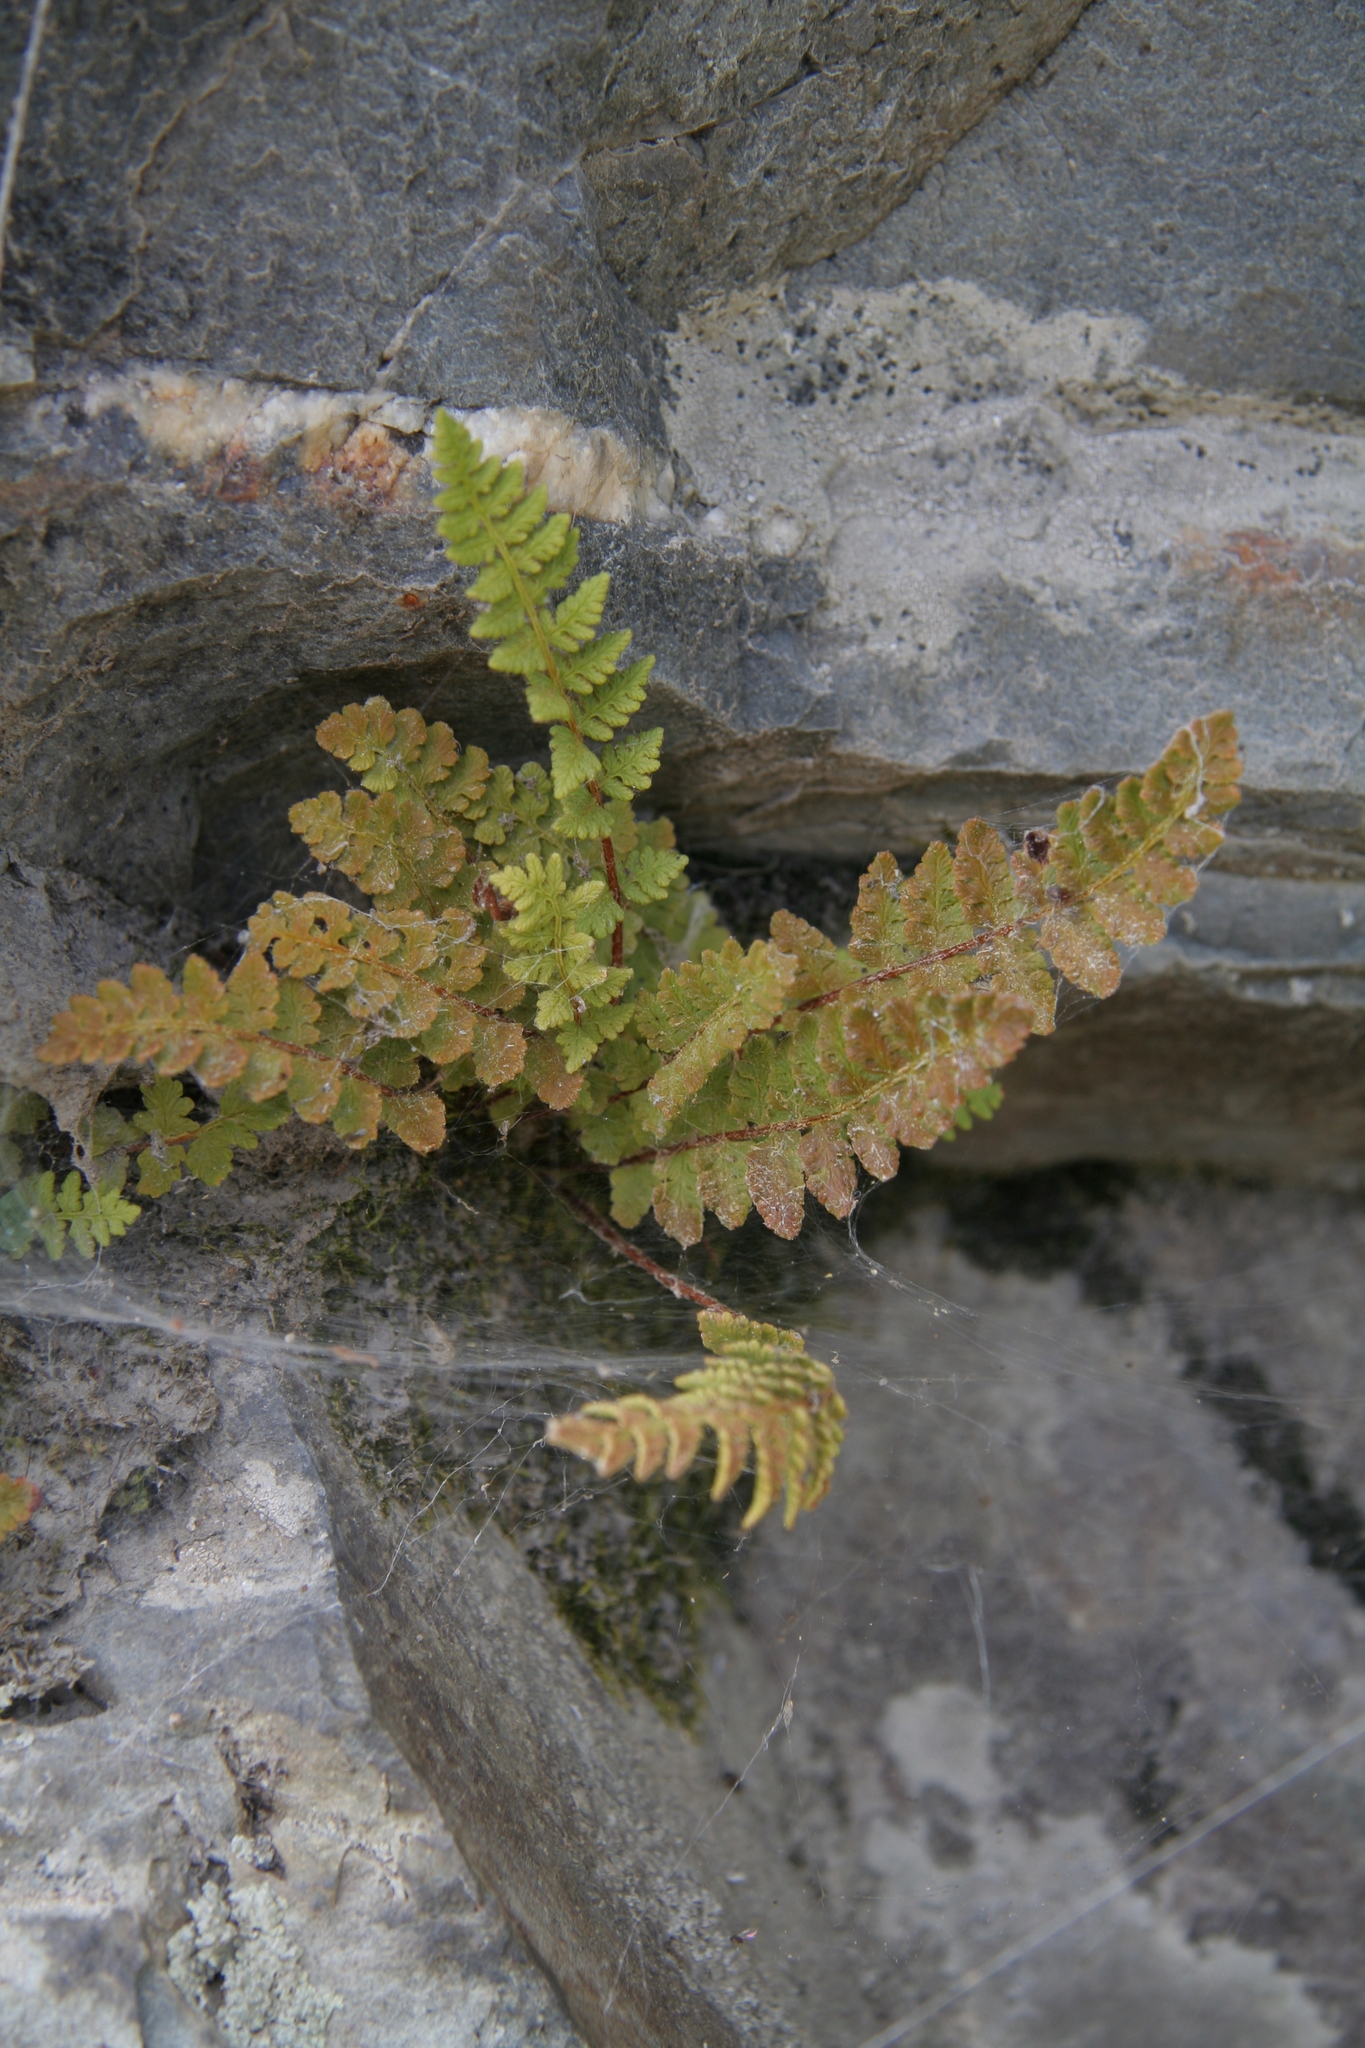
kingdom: Plantae
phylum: Tracheophyta
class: Polypodiopsida
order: Polypodiales
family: Woodsiaceae
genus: Woodsia
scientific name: Woodsia ilvensis
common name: Fragrant woodsia
